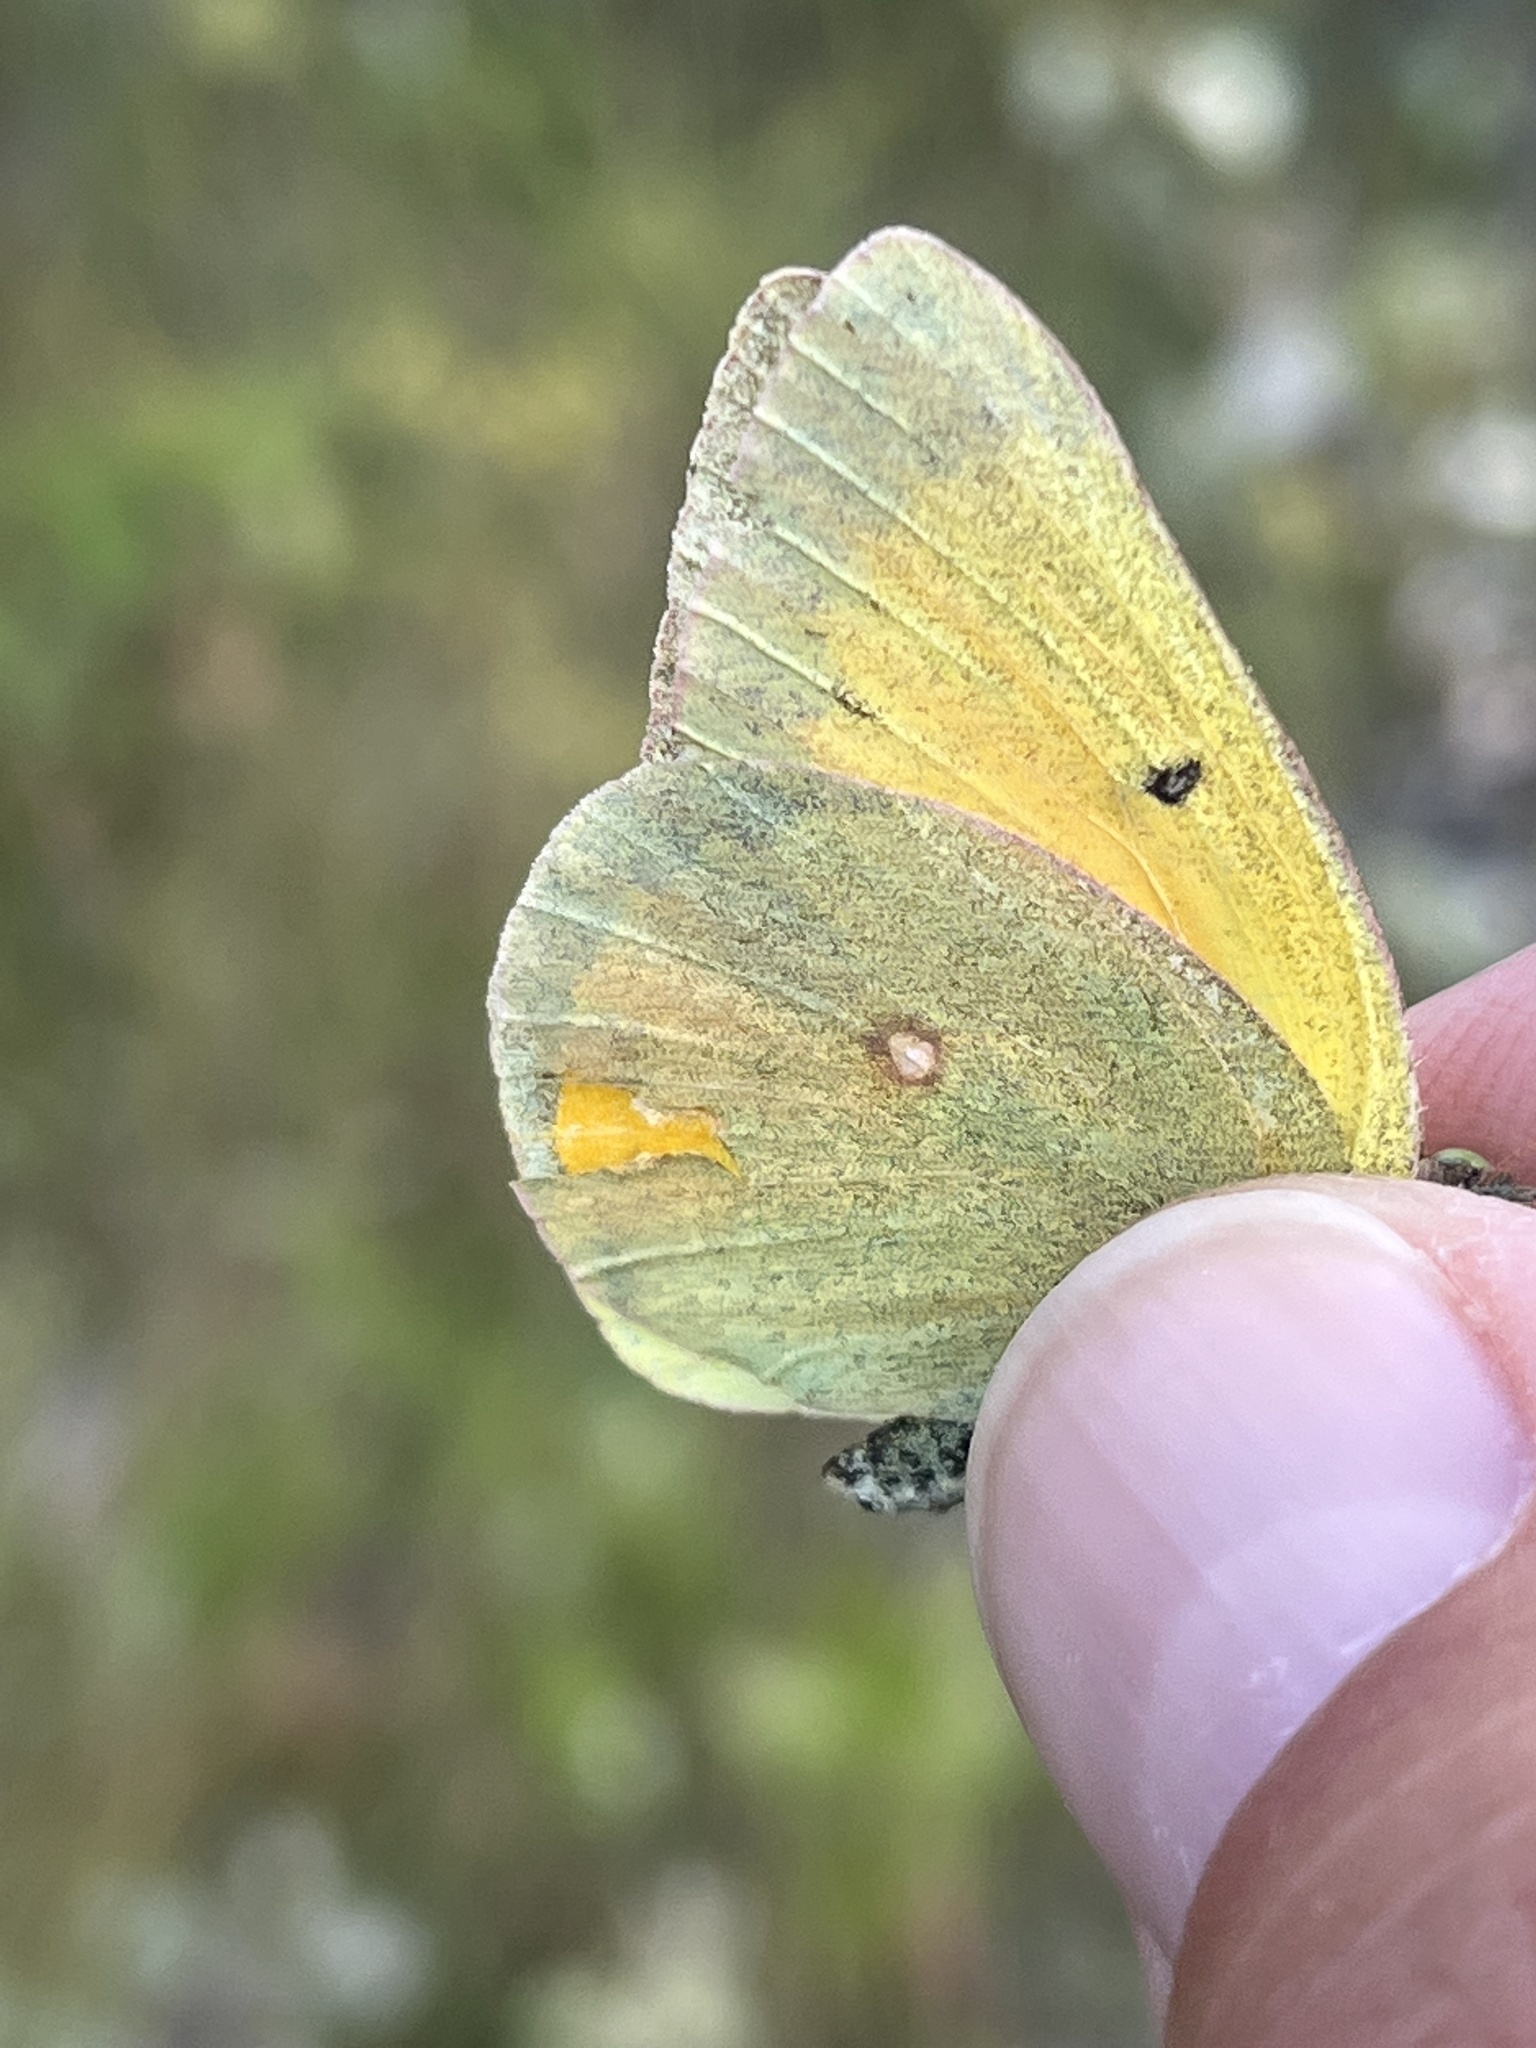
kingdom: Animalia
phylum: Arthropoda
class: Insecta
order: Lepidoptera
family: Pieridae
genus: Colias
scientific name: Colias christina
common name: Christina sulphur
